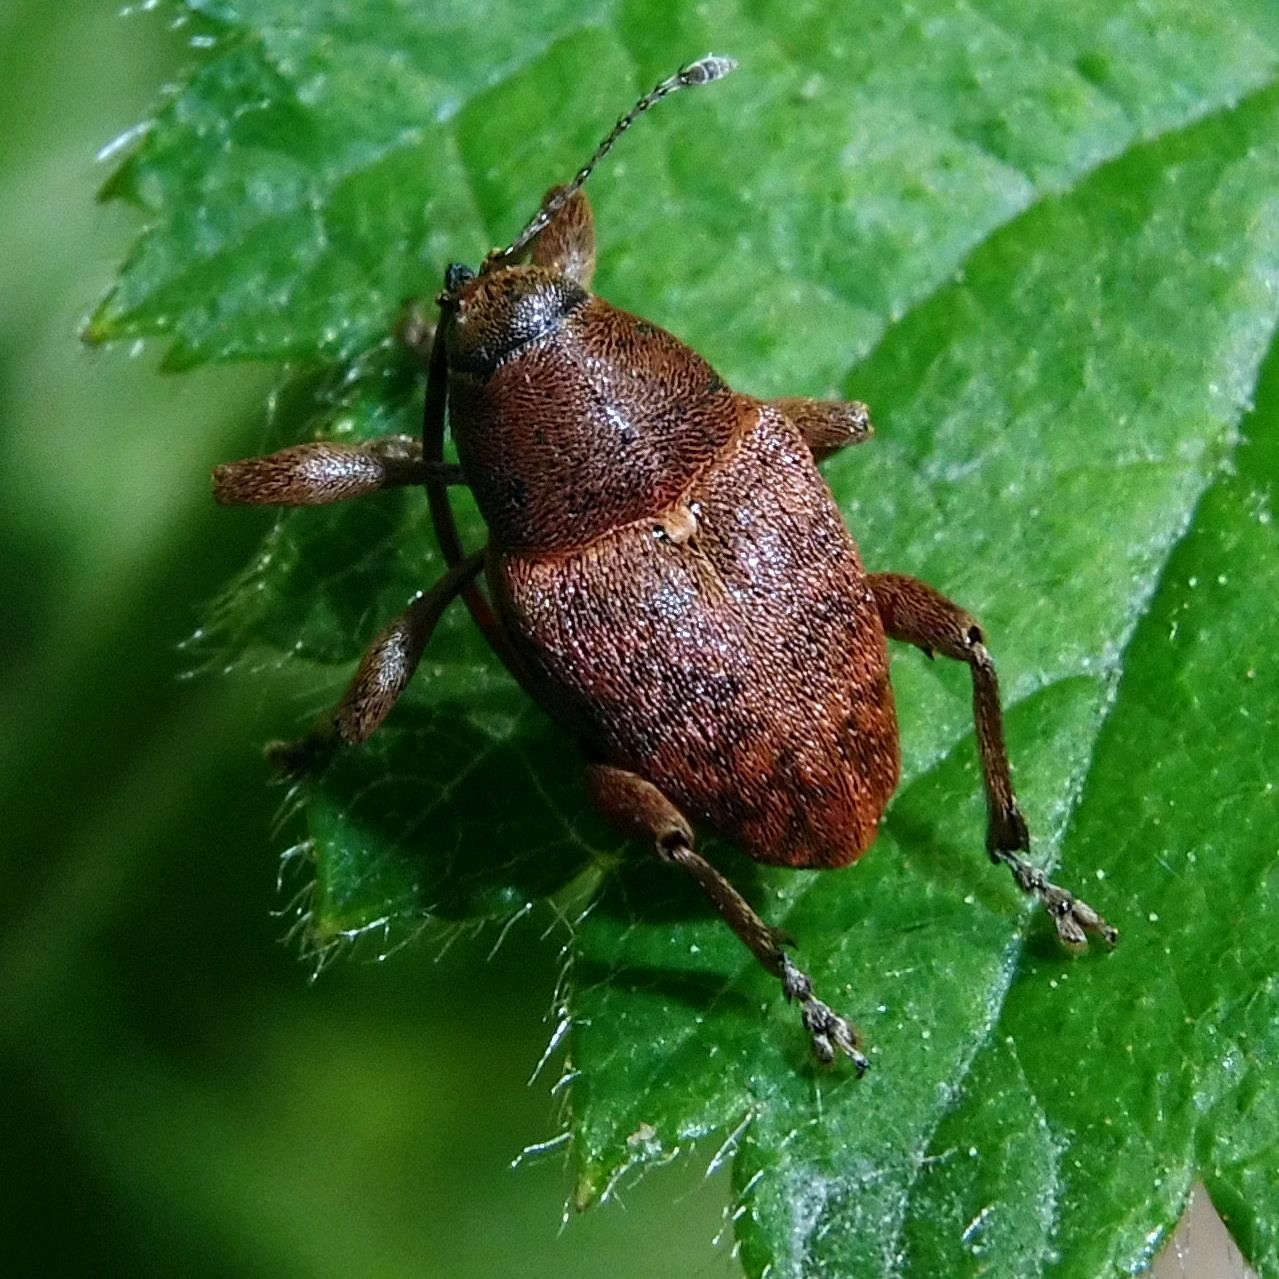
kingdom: Animalia
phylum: Arthropoda
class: Insecta
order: Coleoptera
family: Curculionidae
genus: Curculio
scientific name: Curculio glandium
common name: Acorn weevil
